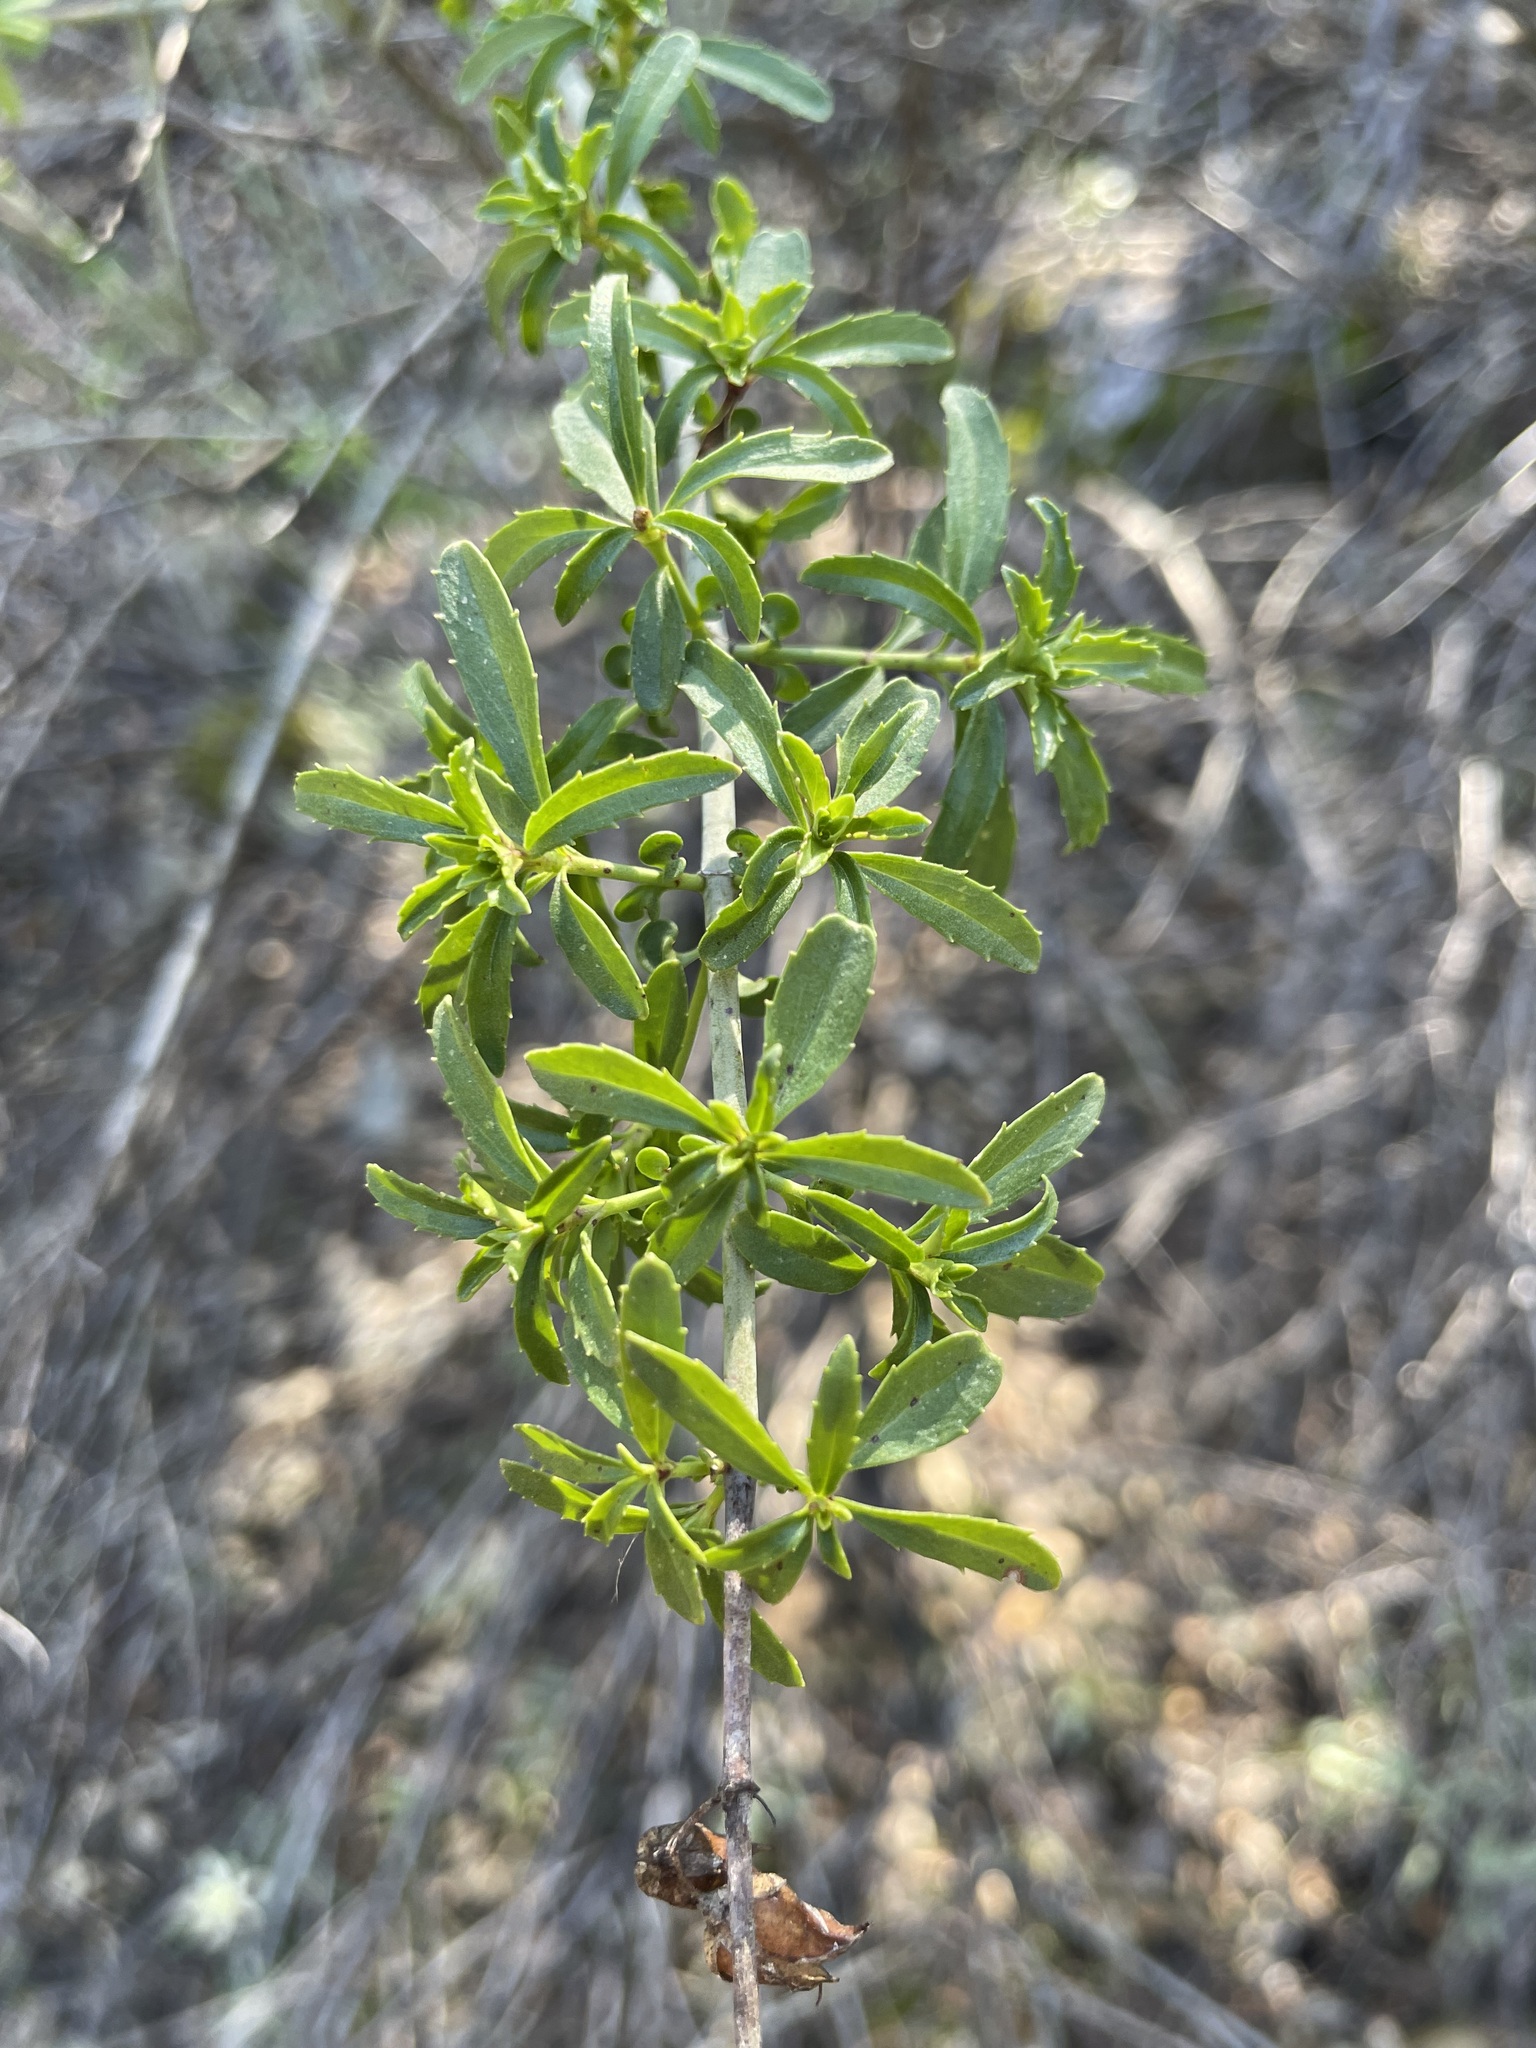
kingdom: Plantae
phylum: Tracheophyta
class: Magnoliopsida
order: Lamiales
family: Plantaginaceae
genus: Keckiella
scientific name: Keckiella ternata
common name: Scarlet keckiella
